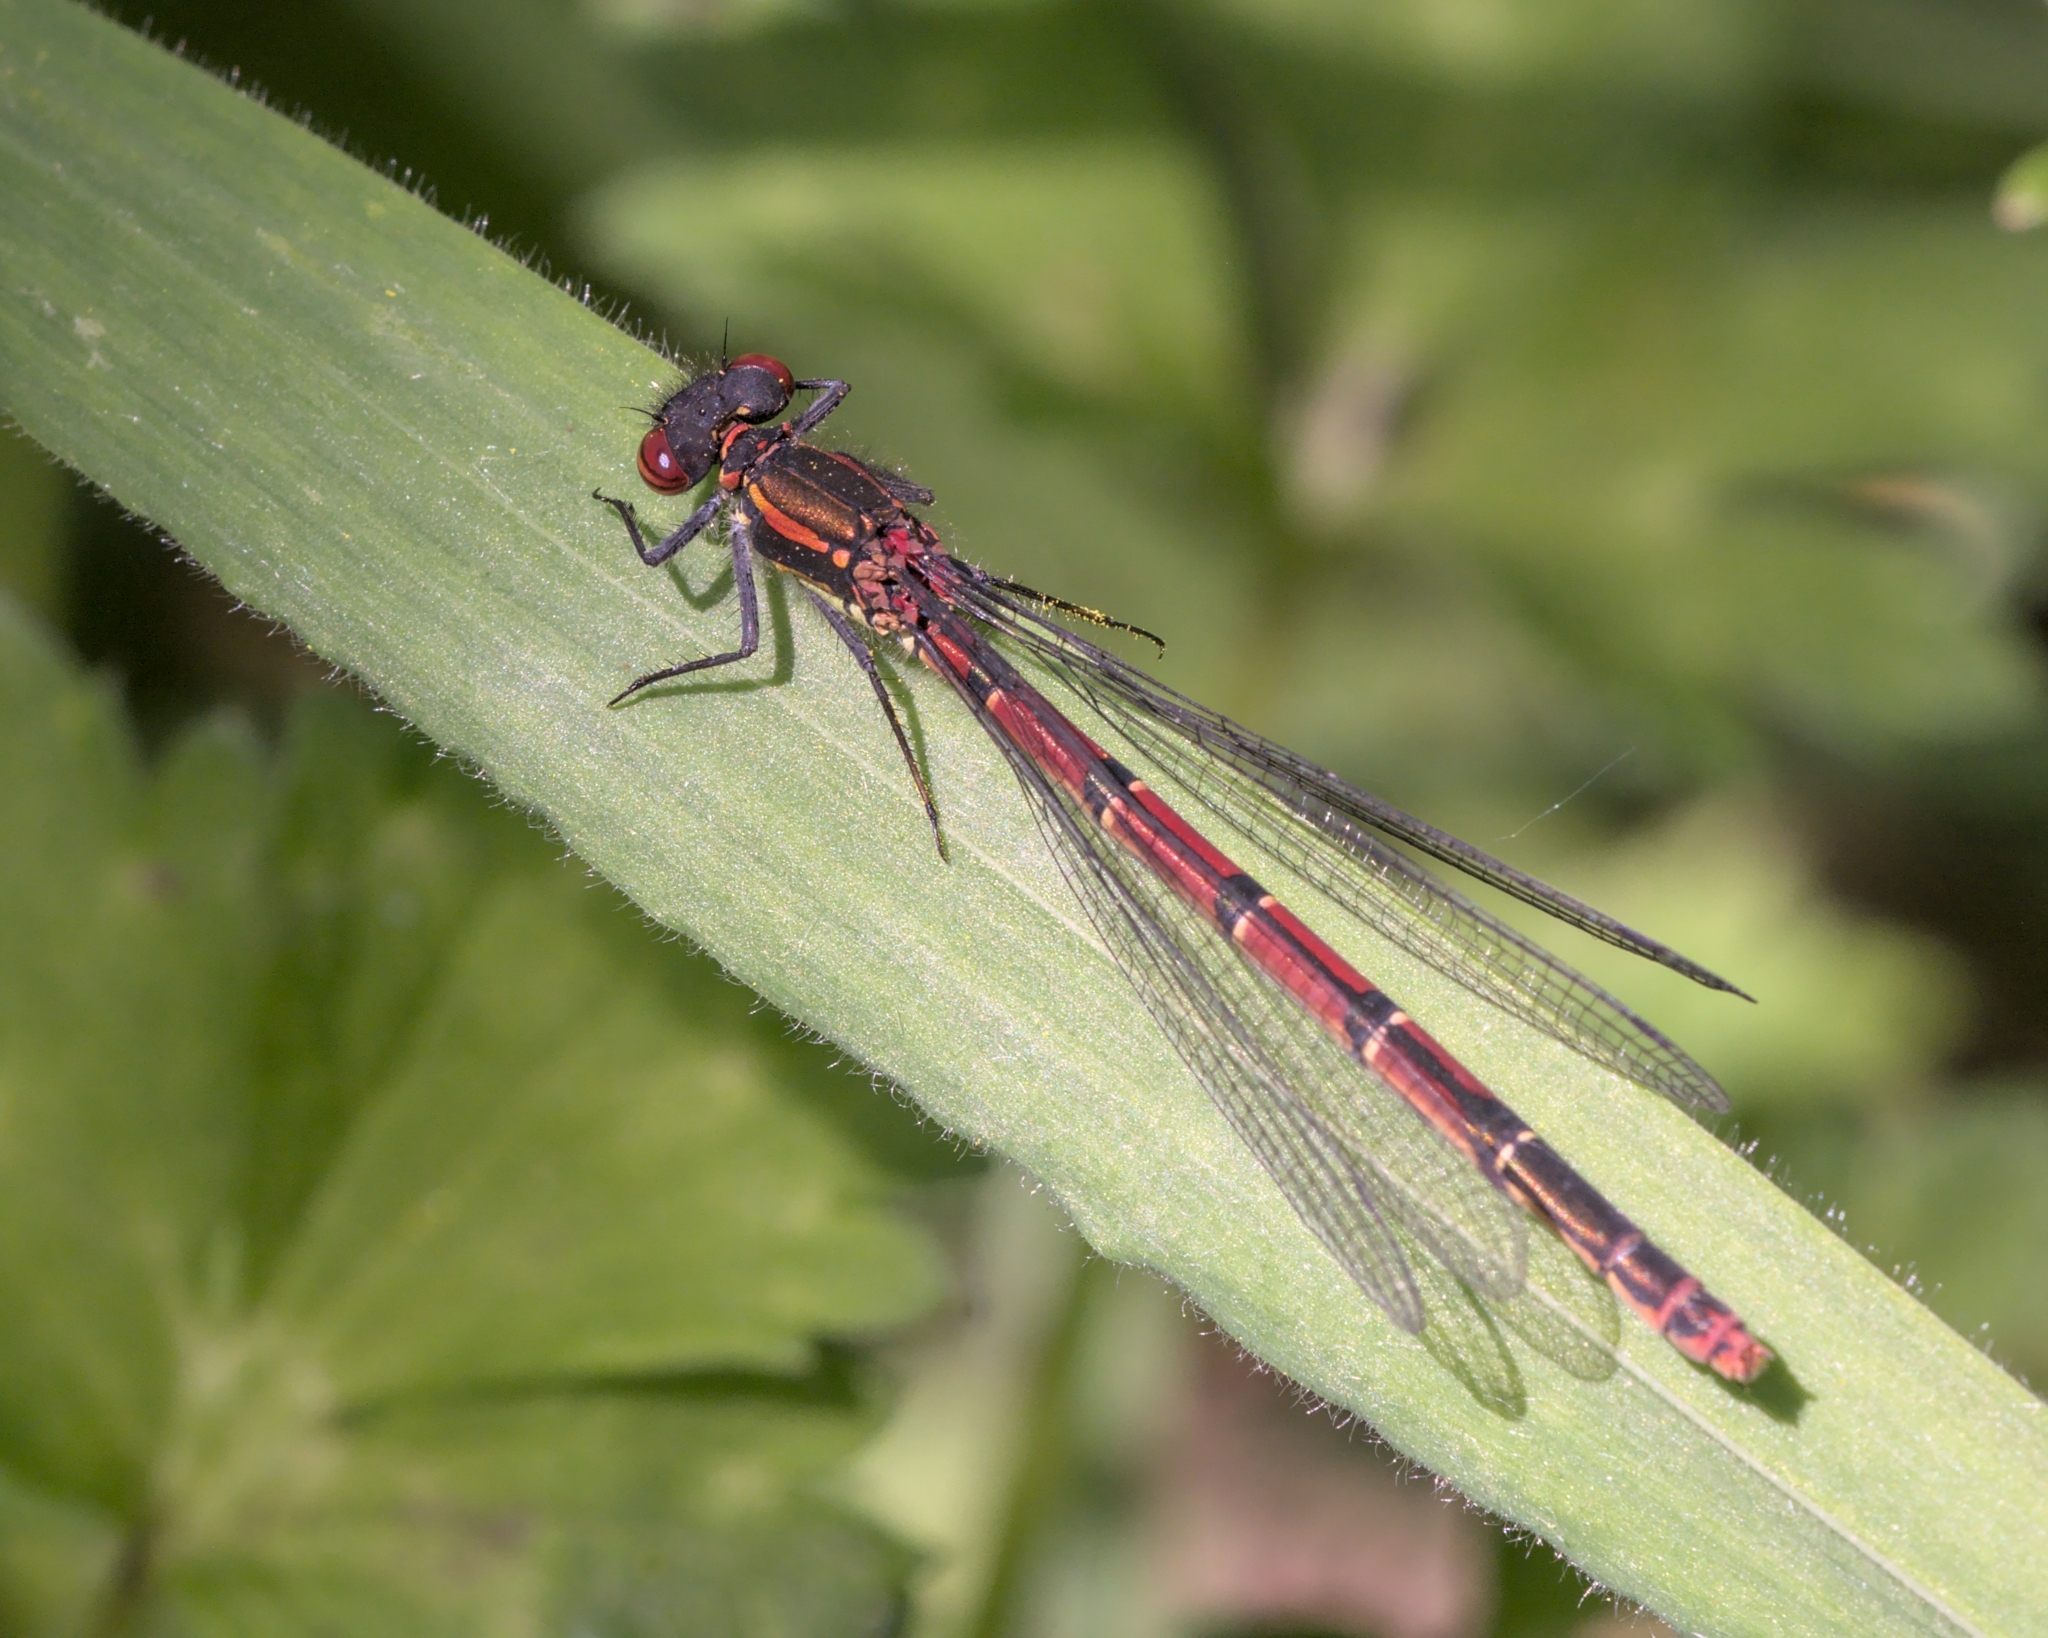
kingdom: Animalia
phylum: Arthropoda
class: Insecta
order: Odonata
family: Coenagrionidae
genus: Pyrrhosoma
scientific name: Pyrrhosoma nymphula
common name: Large red damsel
